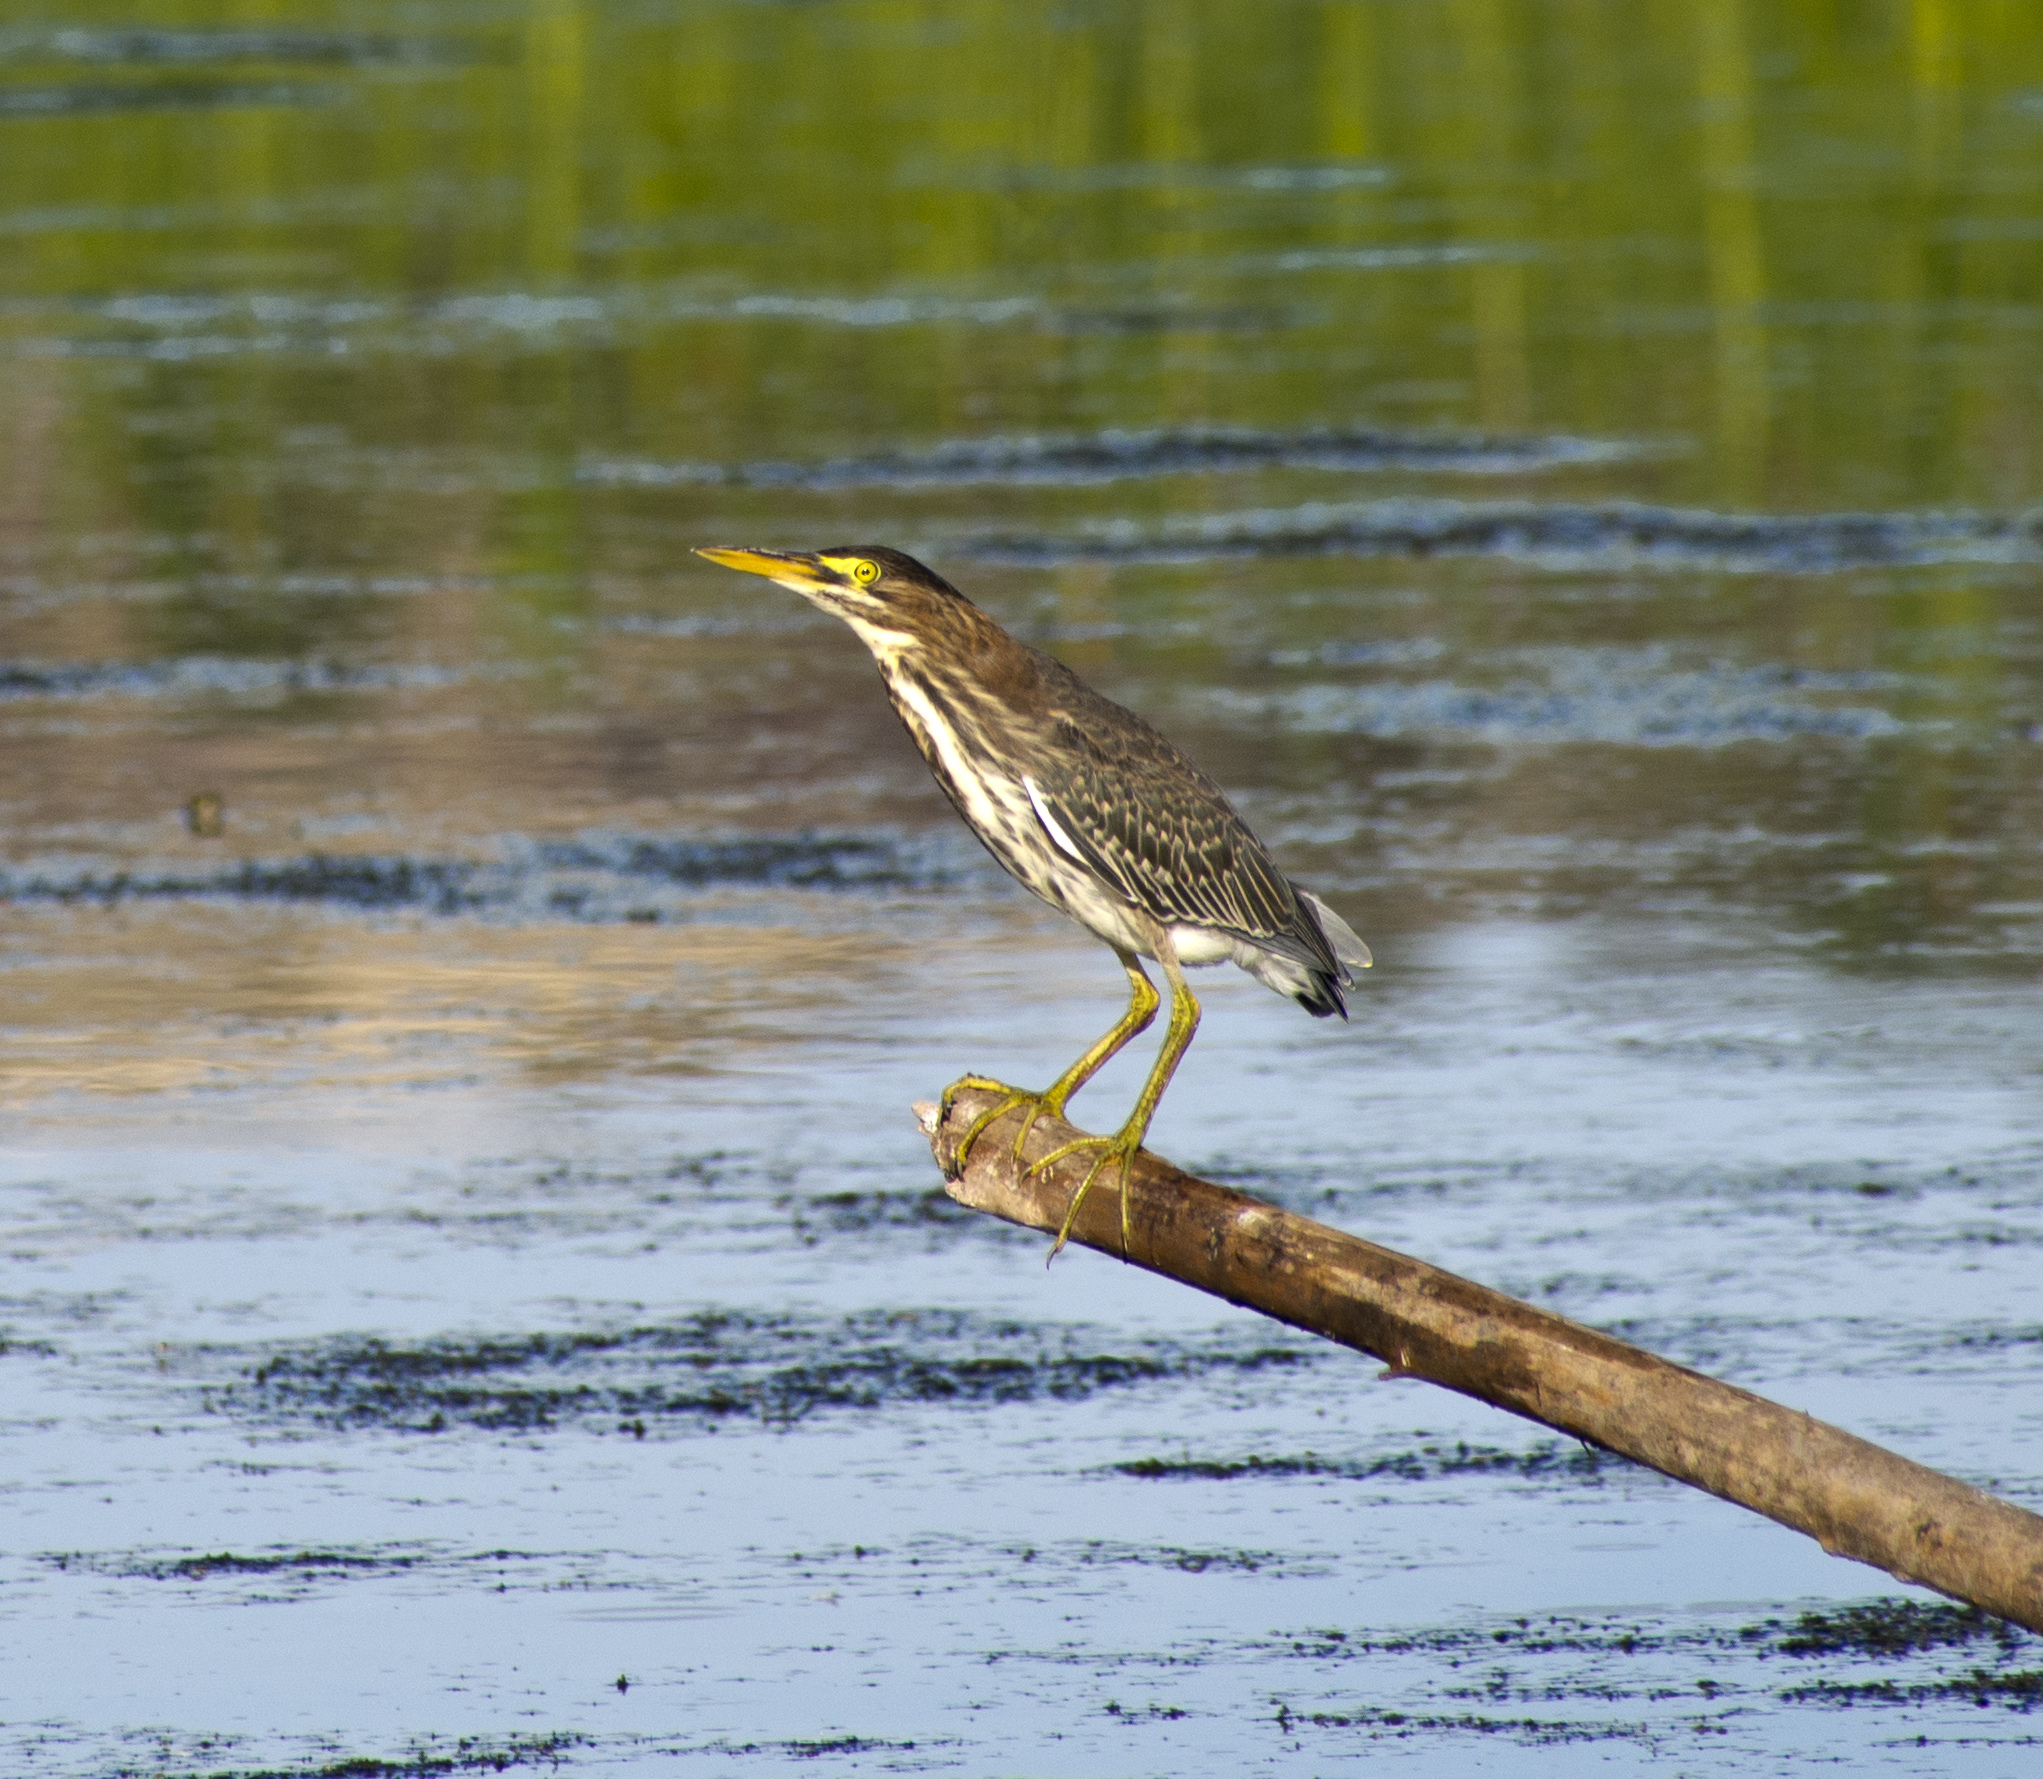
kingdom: Animalia
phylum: Chordata
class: Aves
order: Pelecaniformes
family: Ardeidae
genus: Butorides
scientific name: Butorides virescens
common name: Green heron
